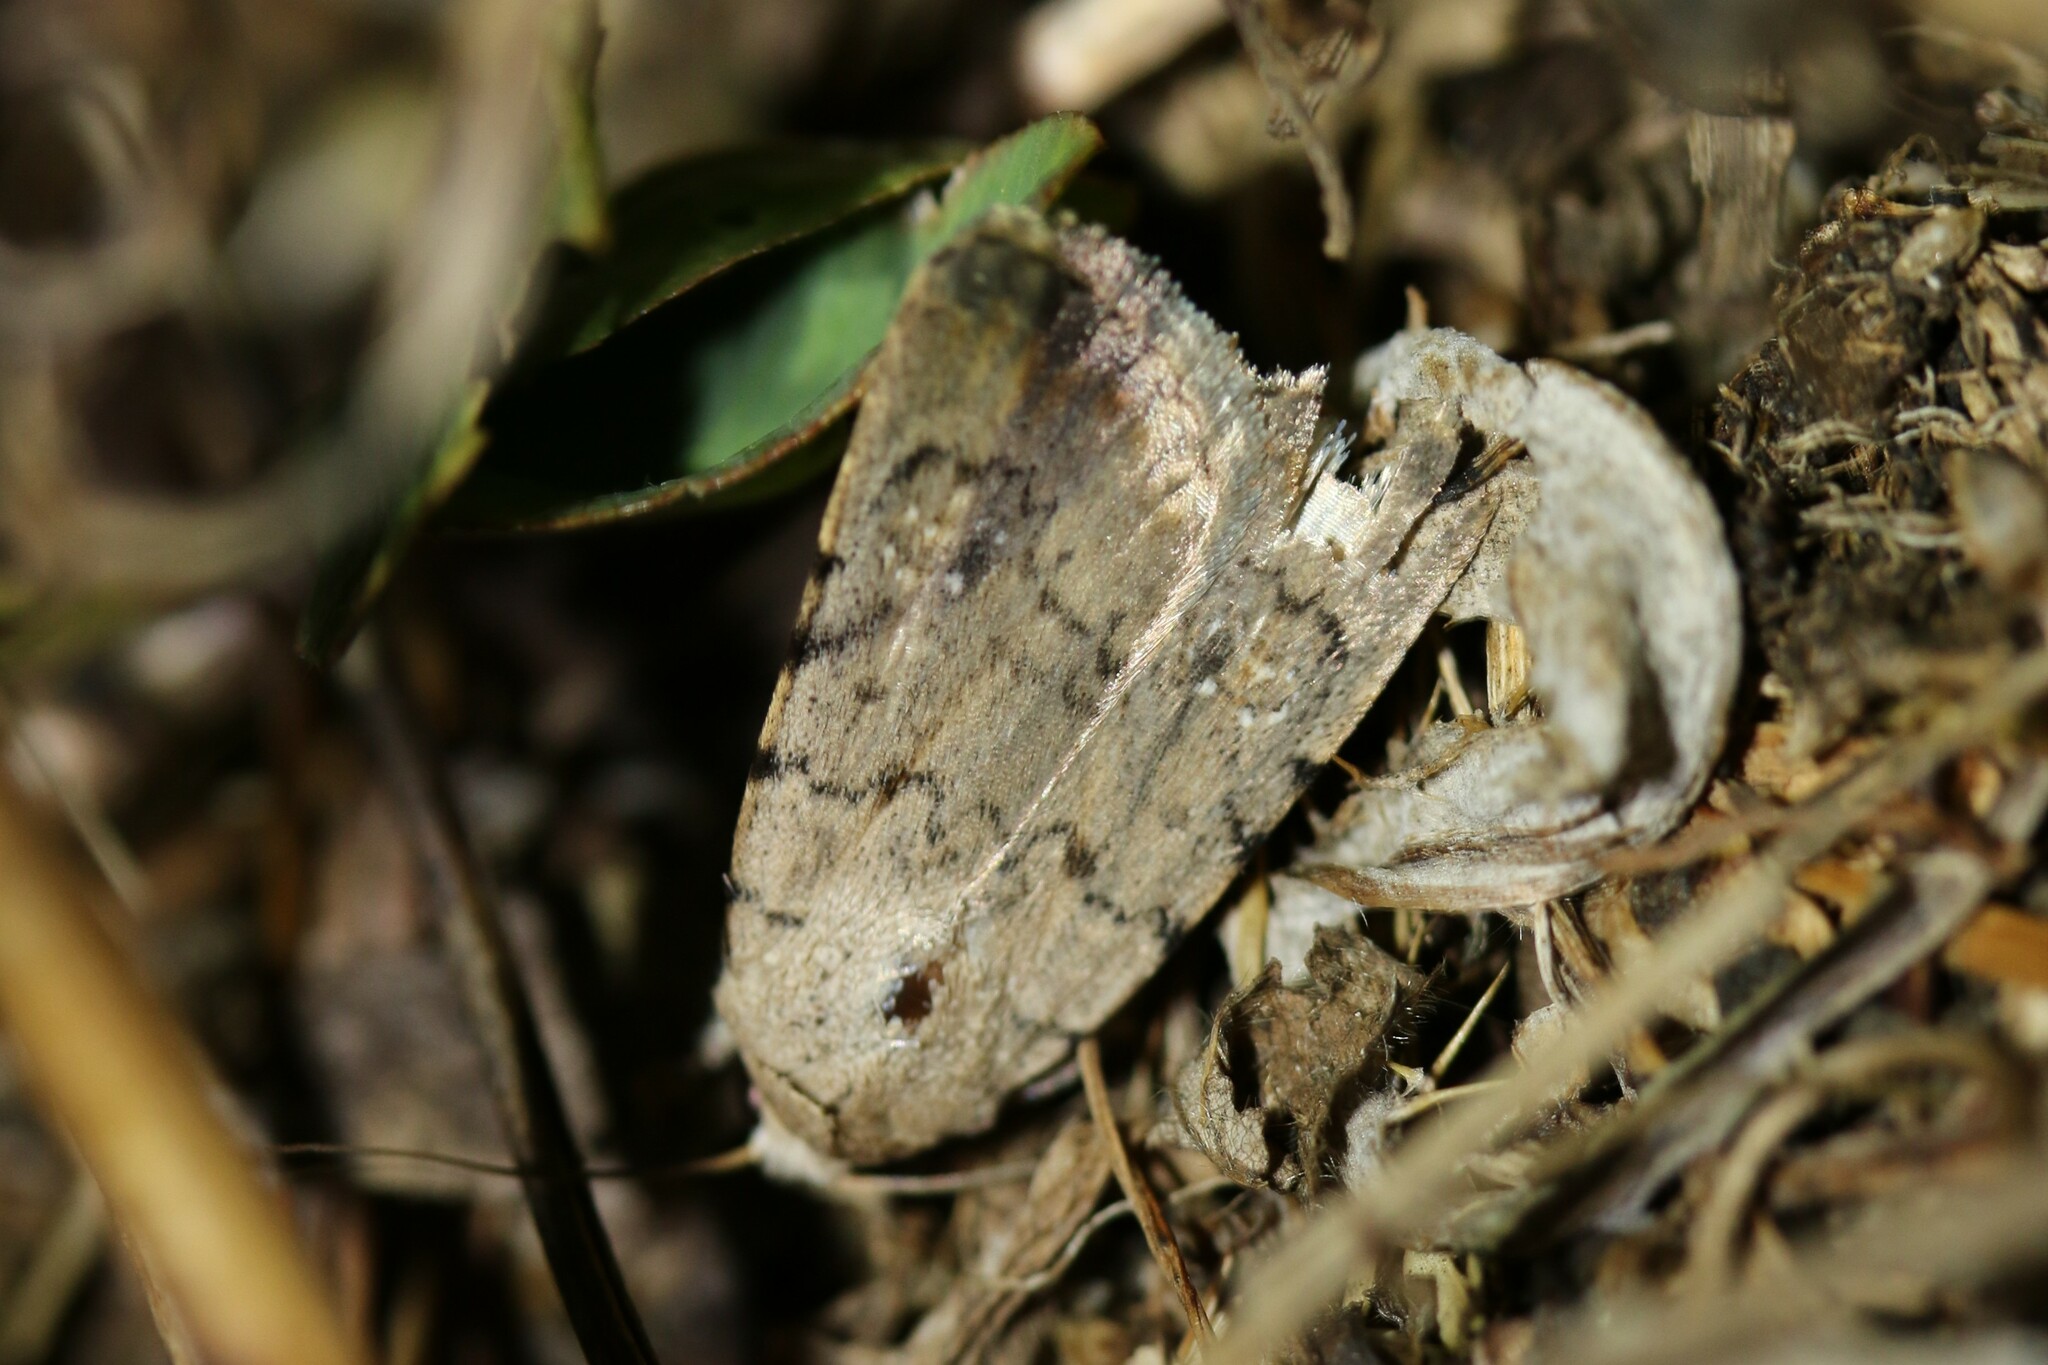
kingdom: Animalia
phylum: Arthropoda
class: Insecta
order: Lepidoptera
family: Noctuidae
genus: Caradrina
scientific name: Caradrina clavipalpis
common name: Pale mottled willow
